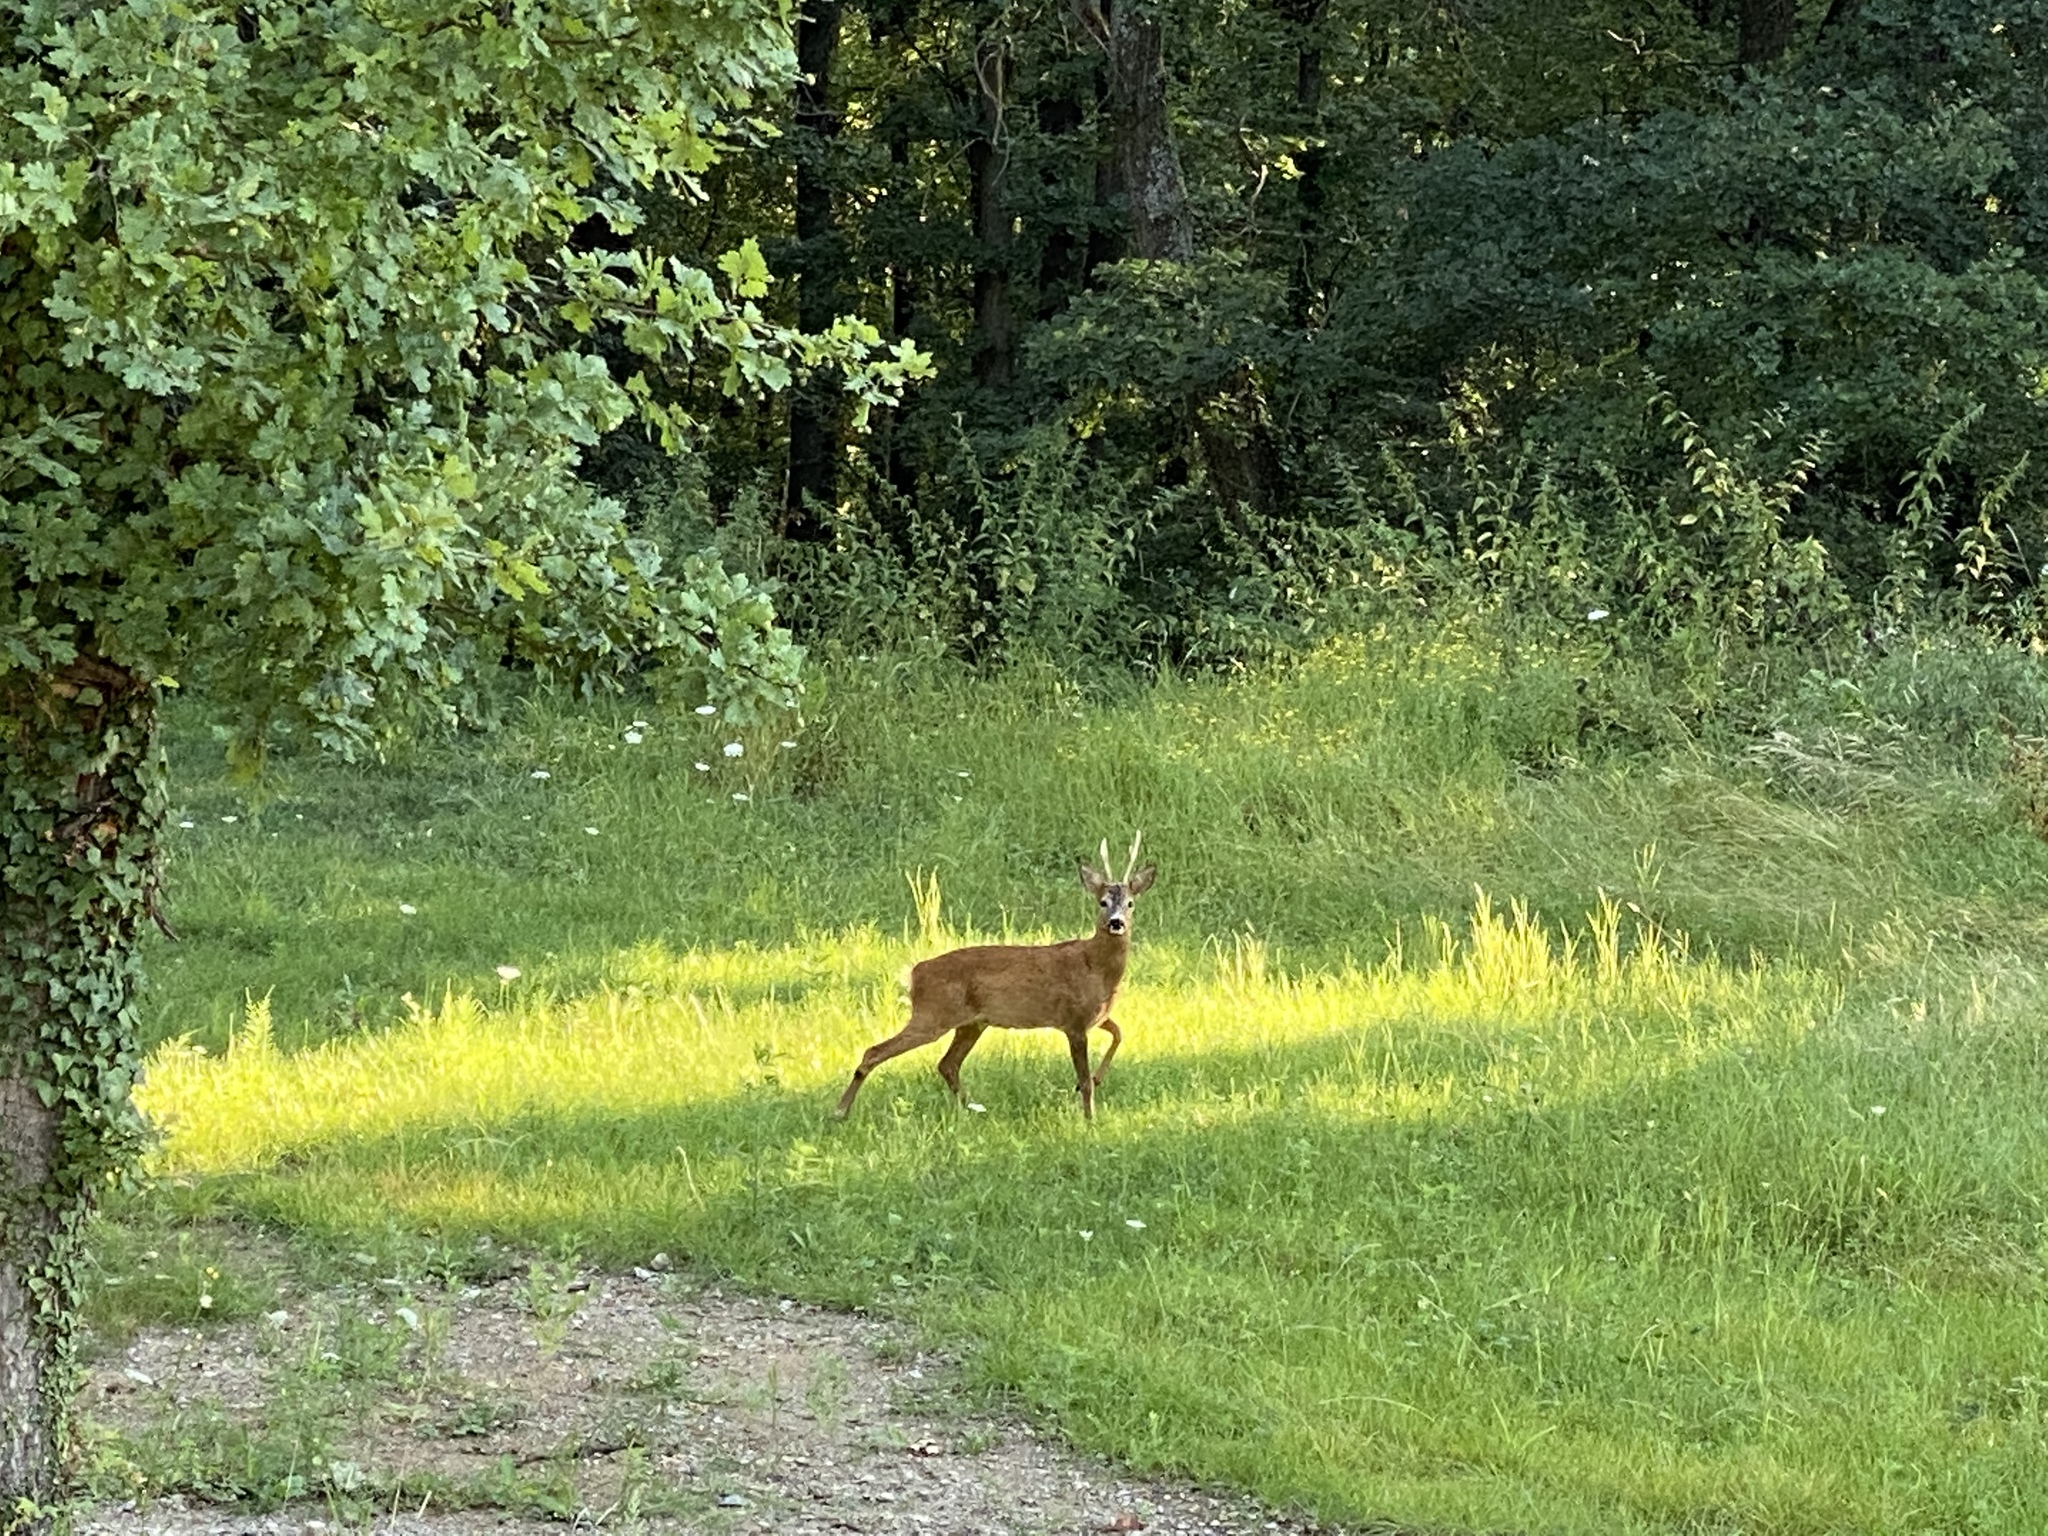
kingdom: Animalia
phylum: Chordata
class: Mammalia
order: Artiodactyla
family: Cervidae
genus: Capreolus
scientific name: Capreolus capreolus
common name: Western roe deer
